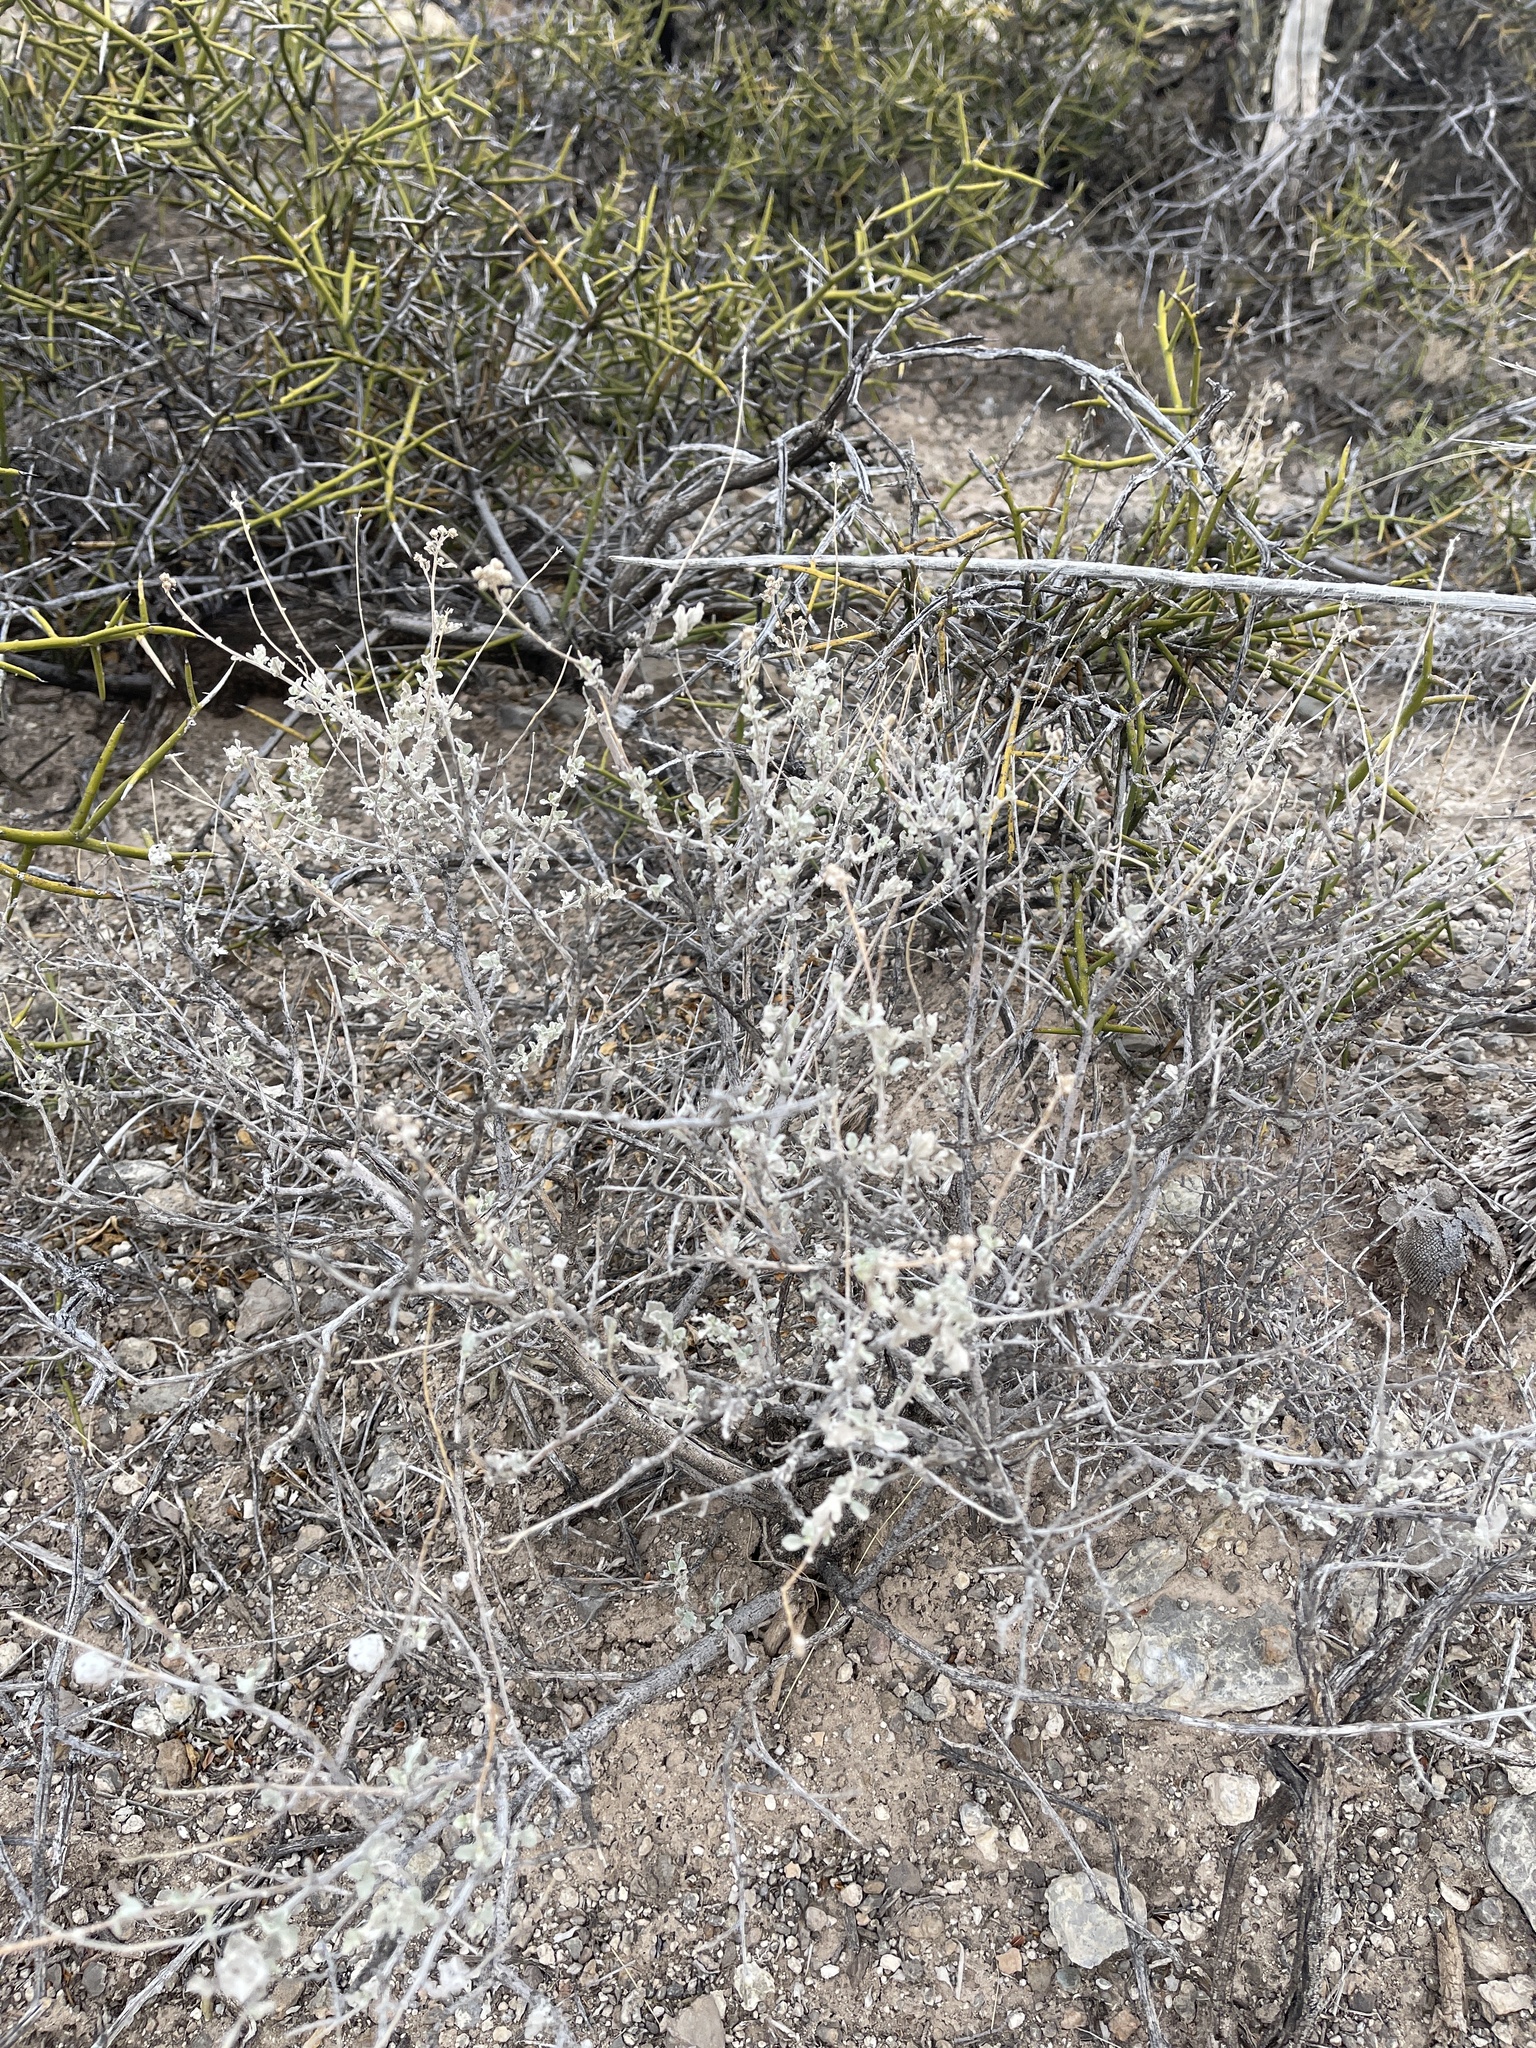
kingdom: Plantae
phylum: Tracheophyta
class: Magnoliopsida
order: Asterales
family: Asteraceae
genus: Parthenium
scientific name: Parthenium incanum
